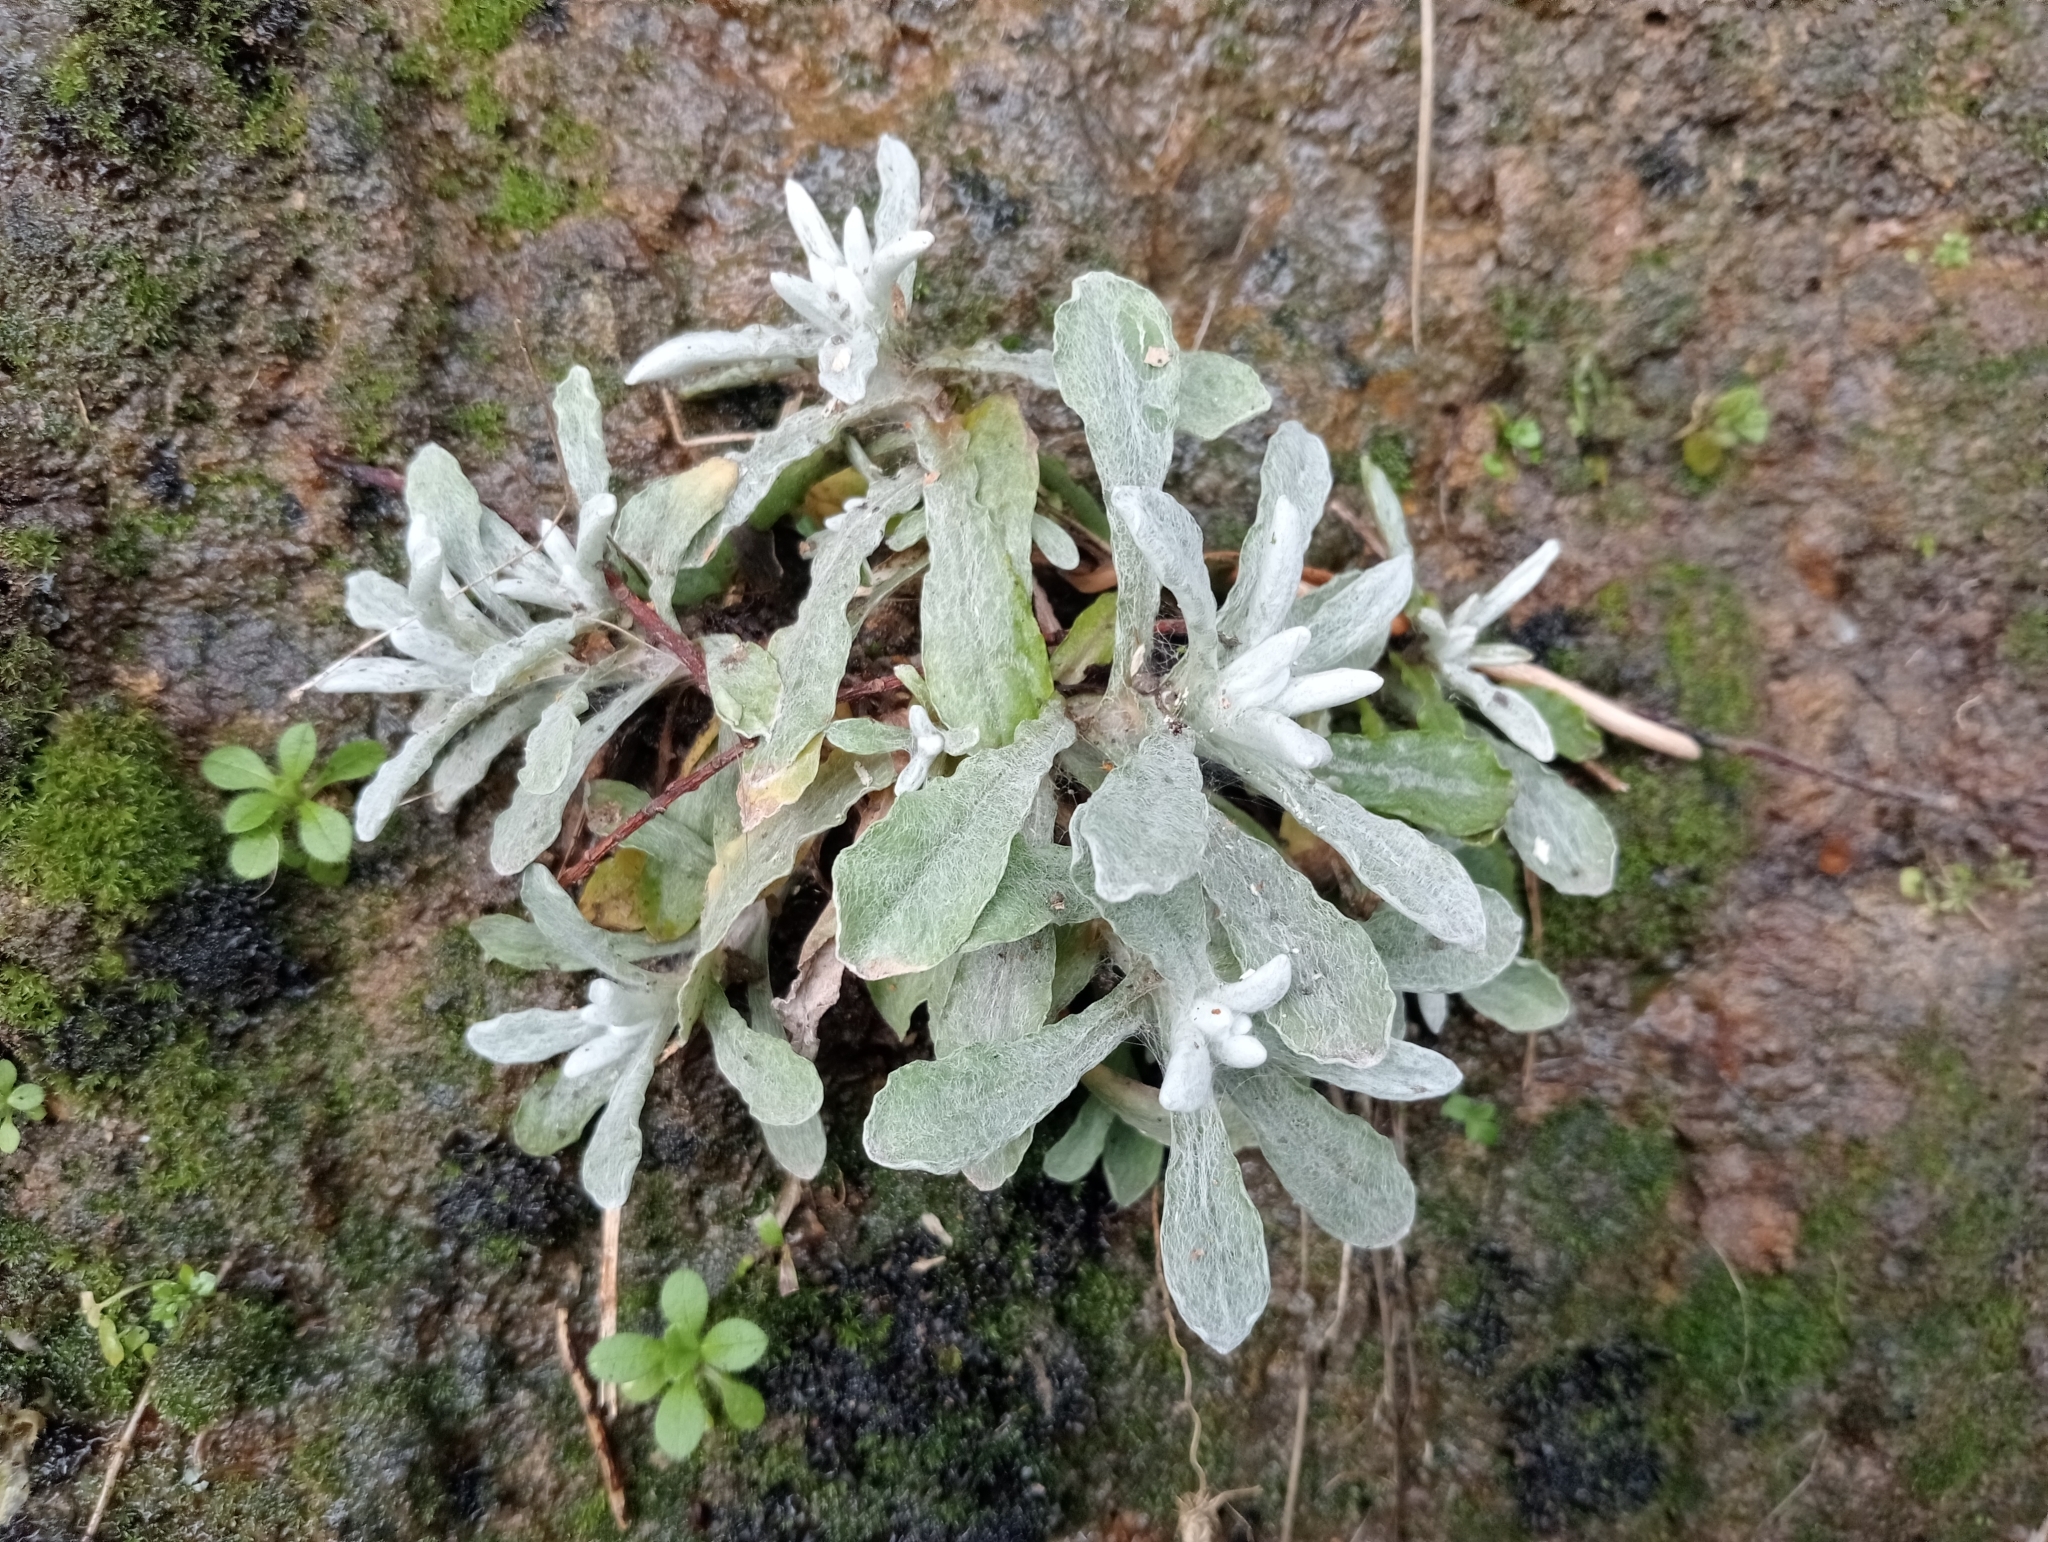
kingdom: Plantae
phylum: Tracheophyta
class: Magnoliopsida
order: Asterales
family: Asteraceae
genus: Helichrysum
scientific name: Helichrysum luteoalbum
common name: Daisy
